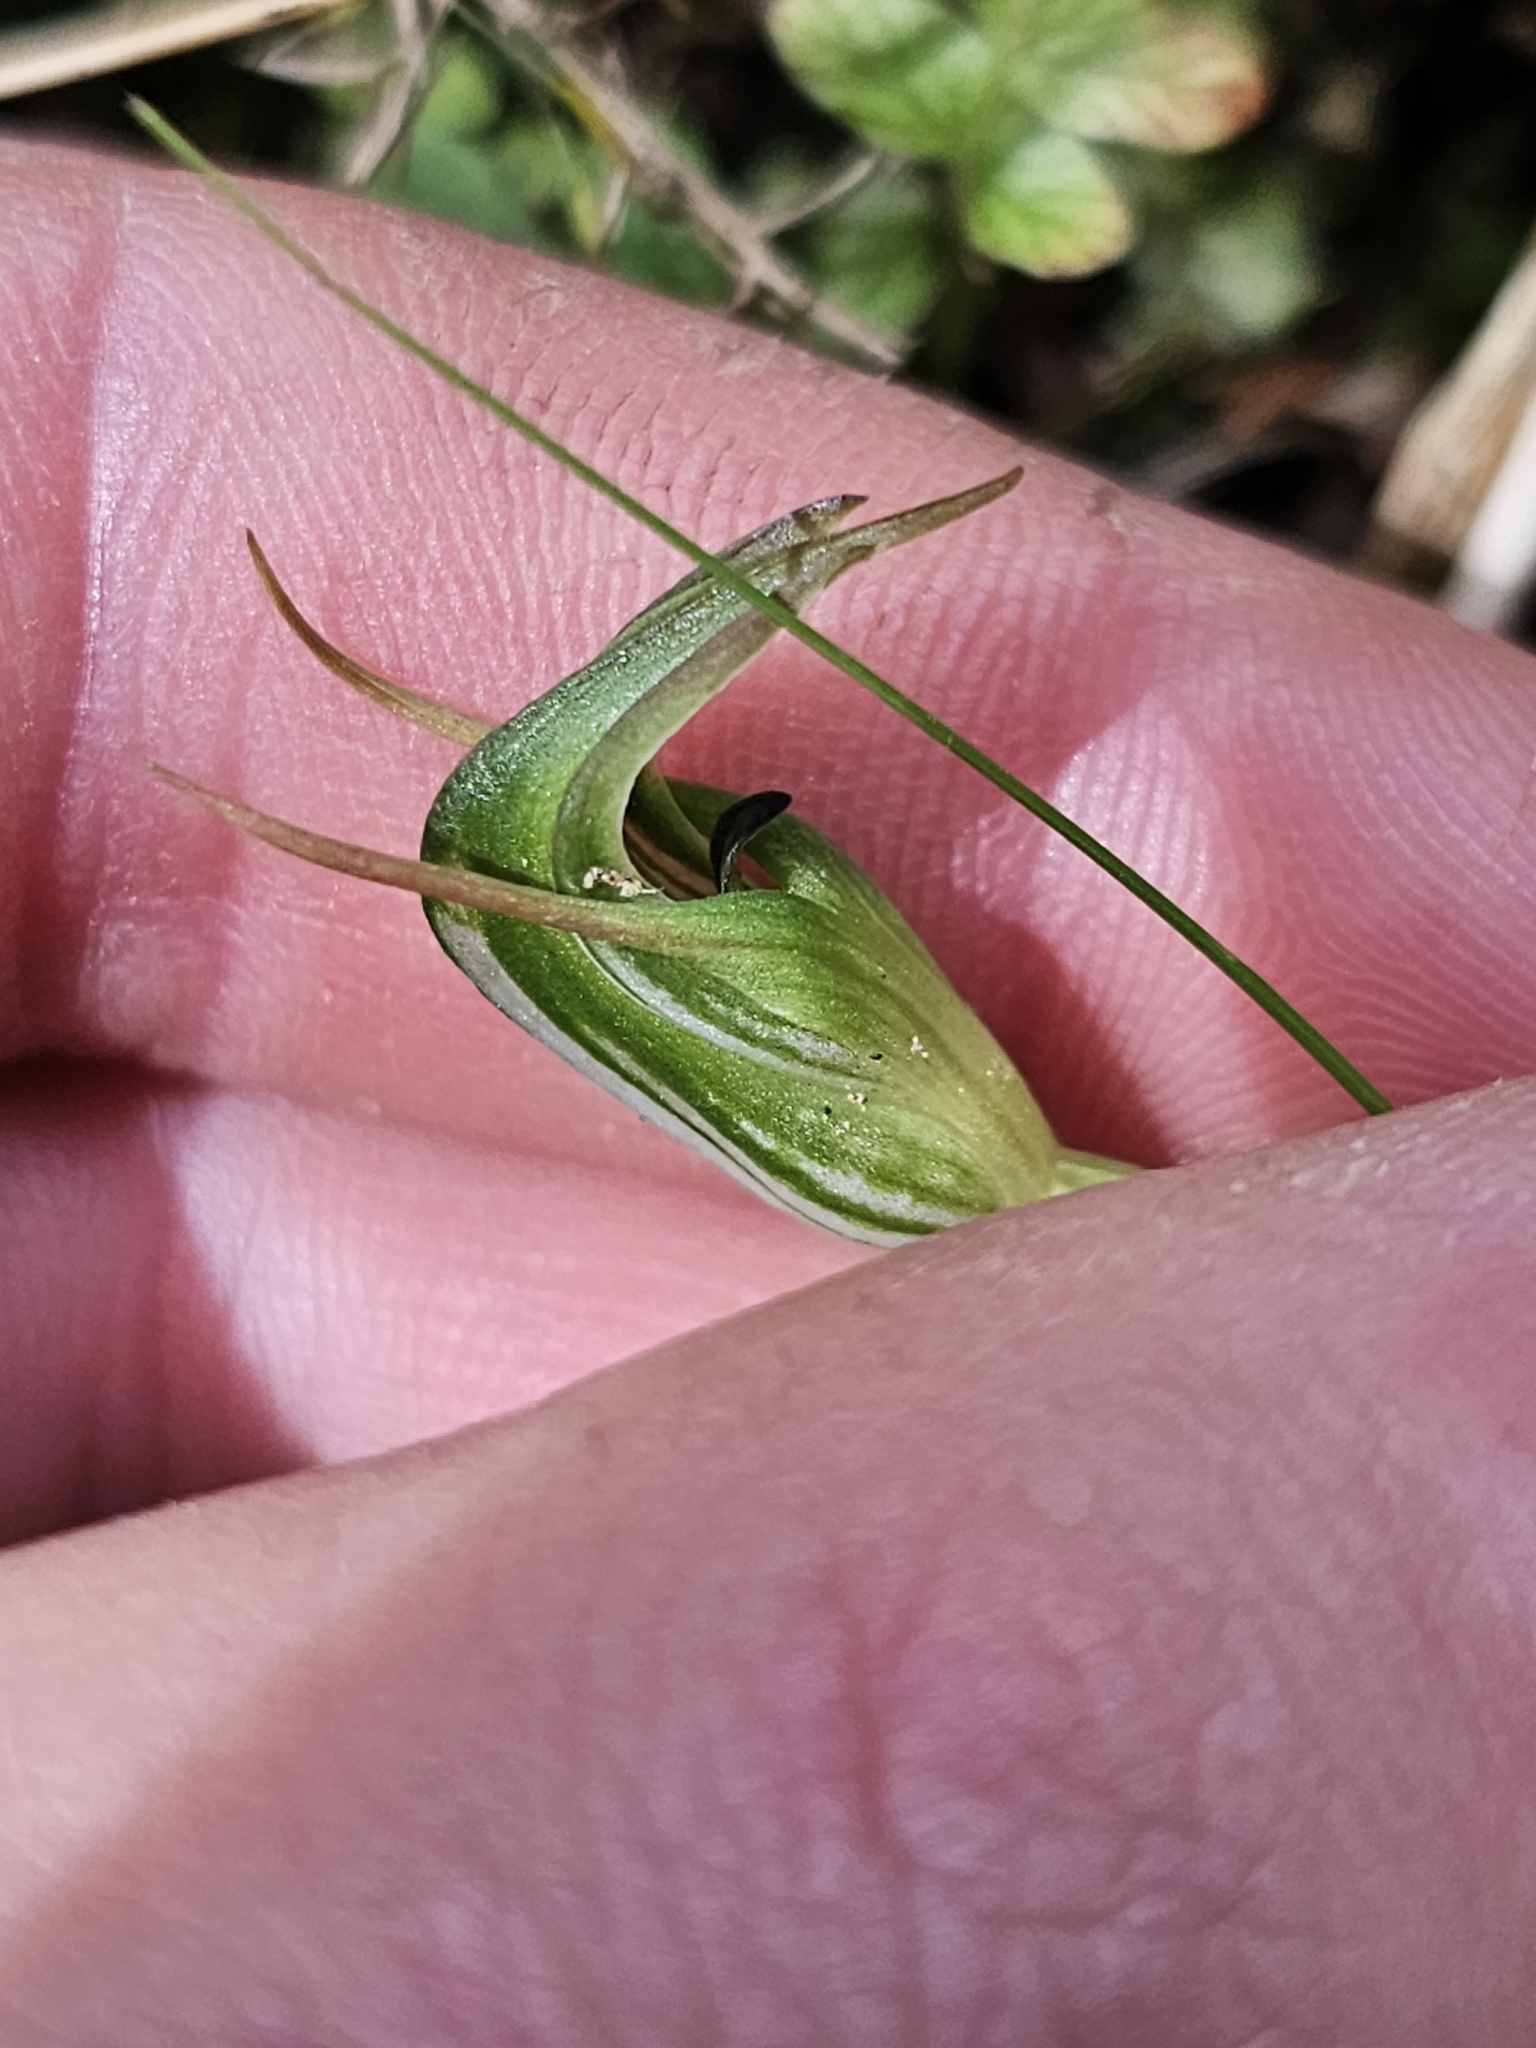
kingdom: Plantae
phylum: Tracheophyta
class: Liliopsida
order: Asparagales
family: Orchidaceae
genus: Pterostylis
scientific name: Pterostylis graminea
